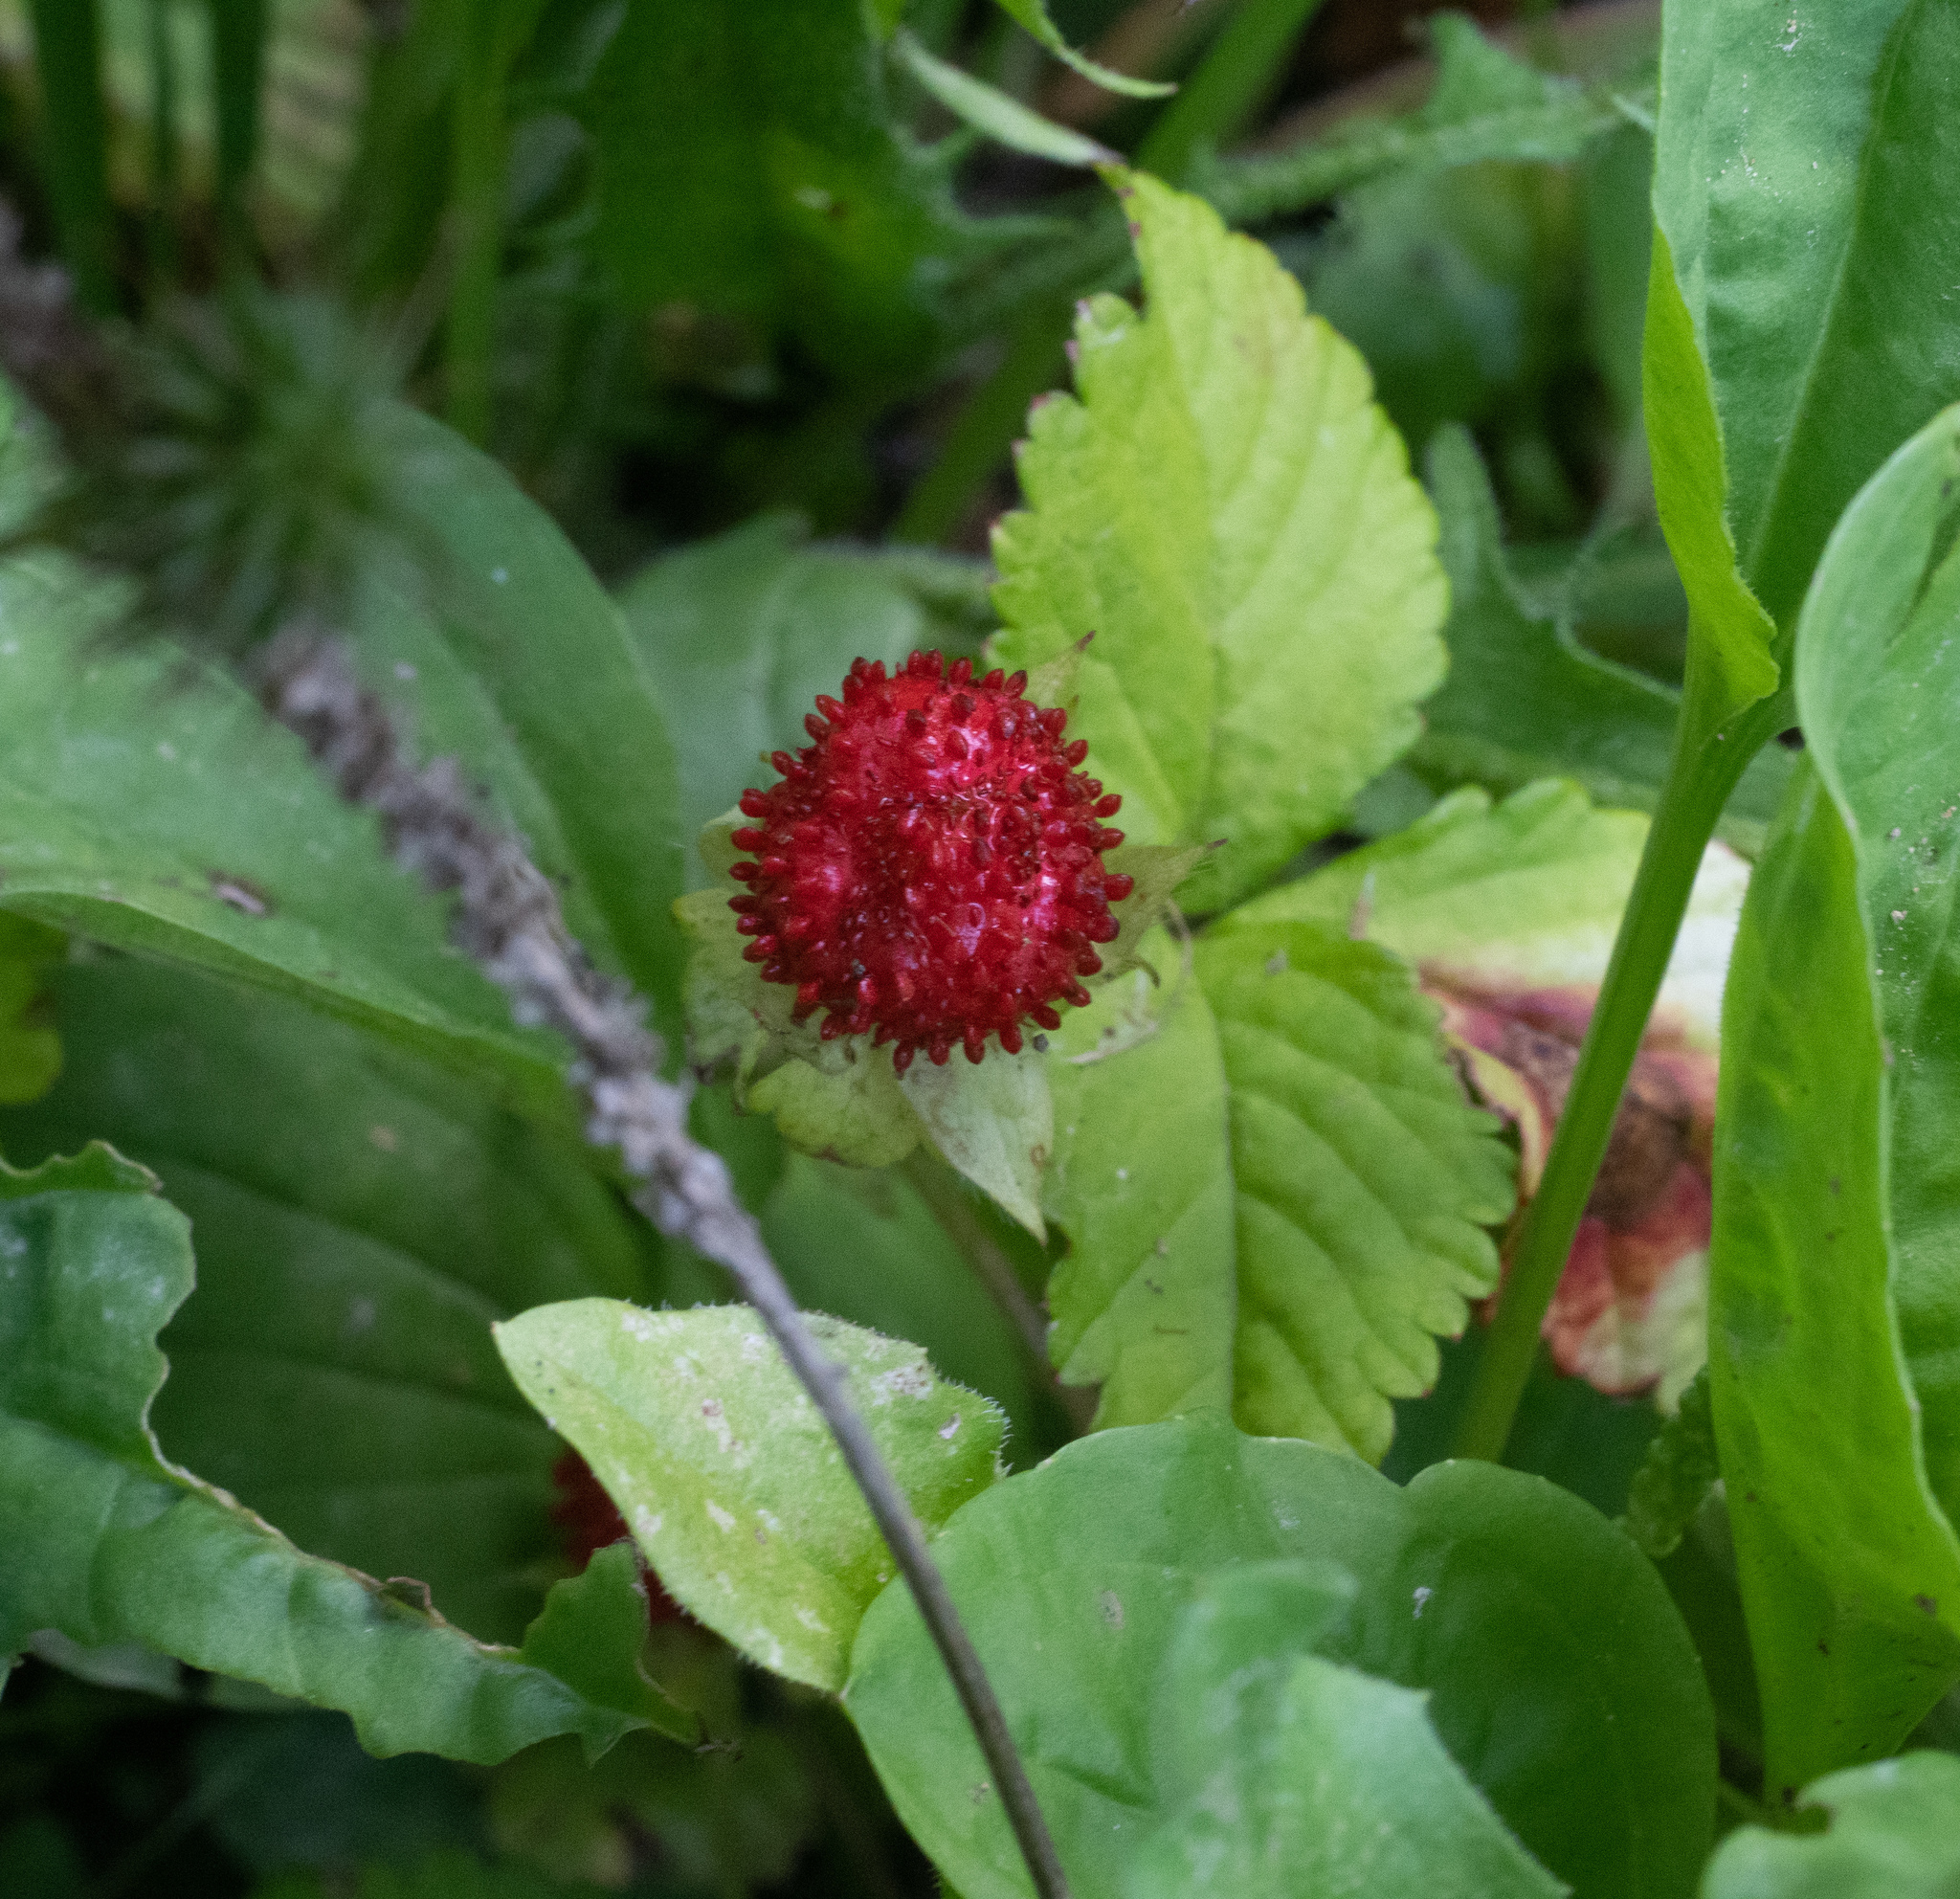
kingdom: Plantae
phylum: Tracheophyta
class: Magnoliopsida
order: Rosales
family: Rosaceae
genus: Potentilla
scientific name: Potentilla indica
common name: Yellow-flowered strawberry
